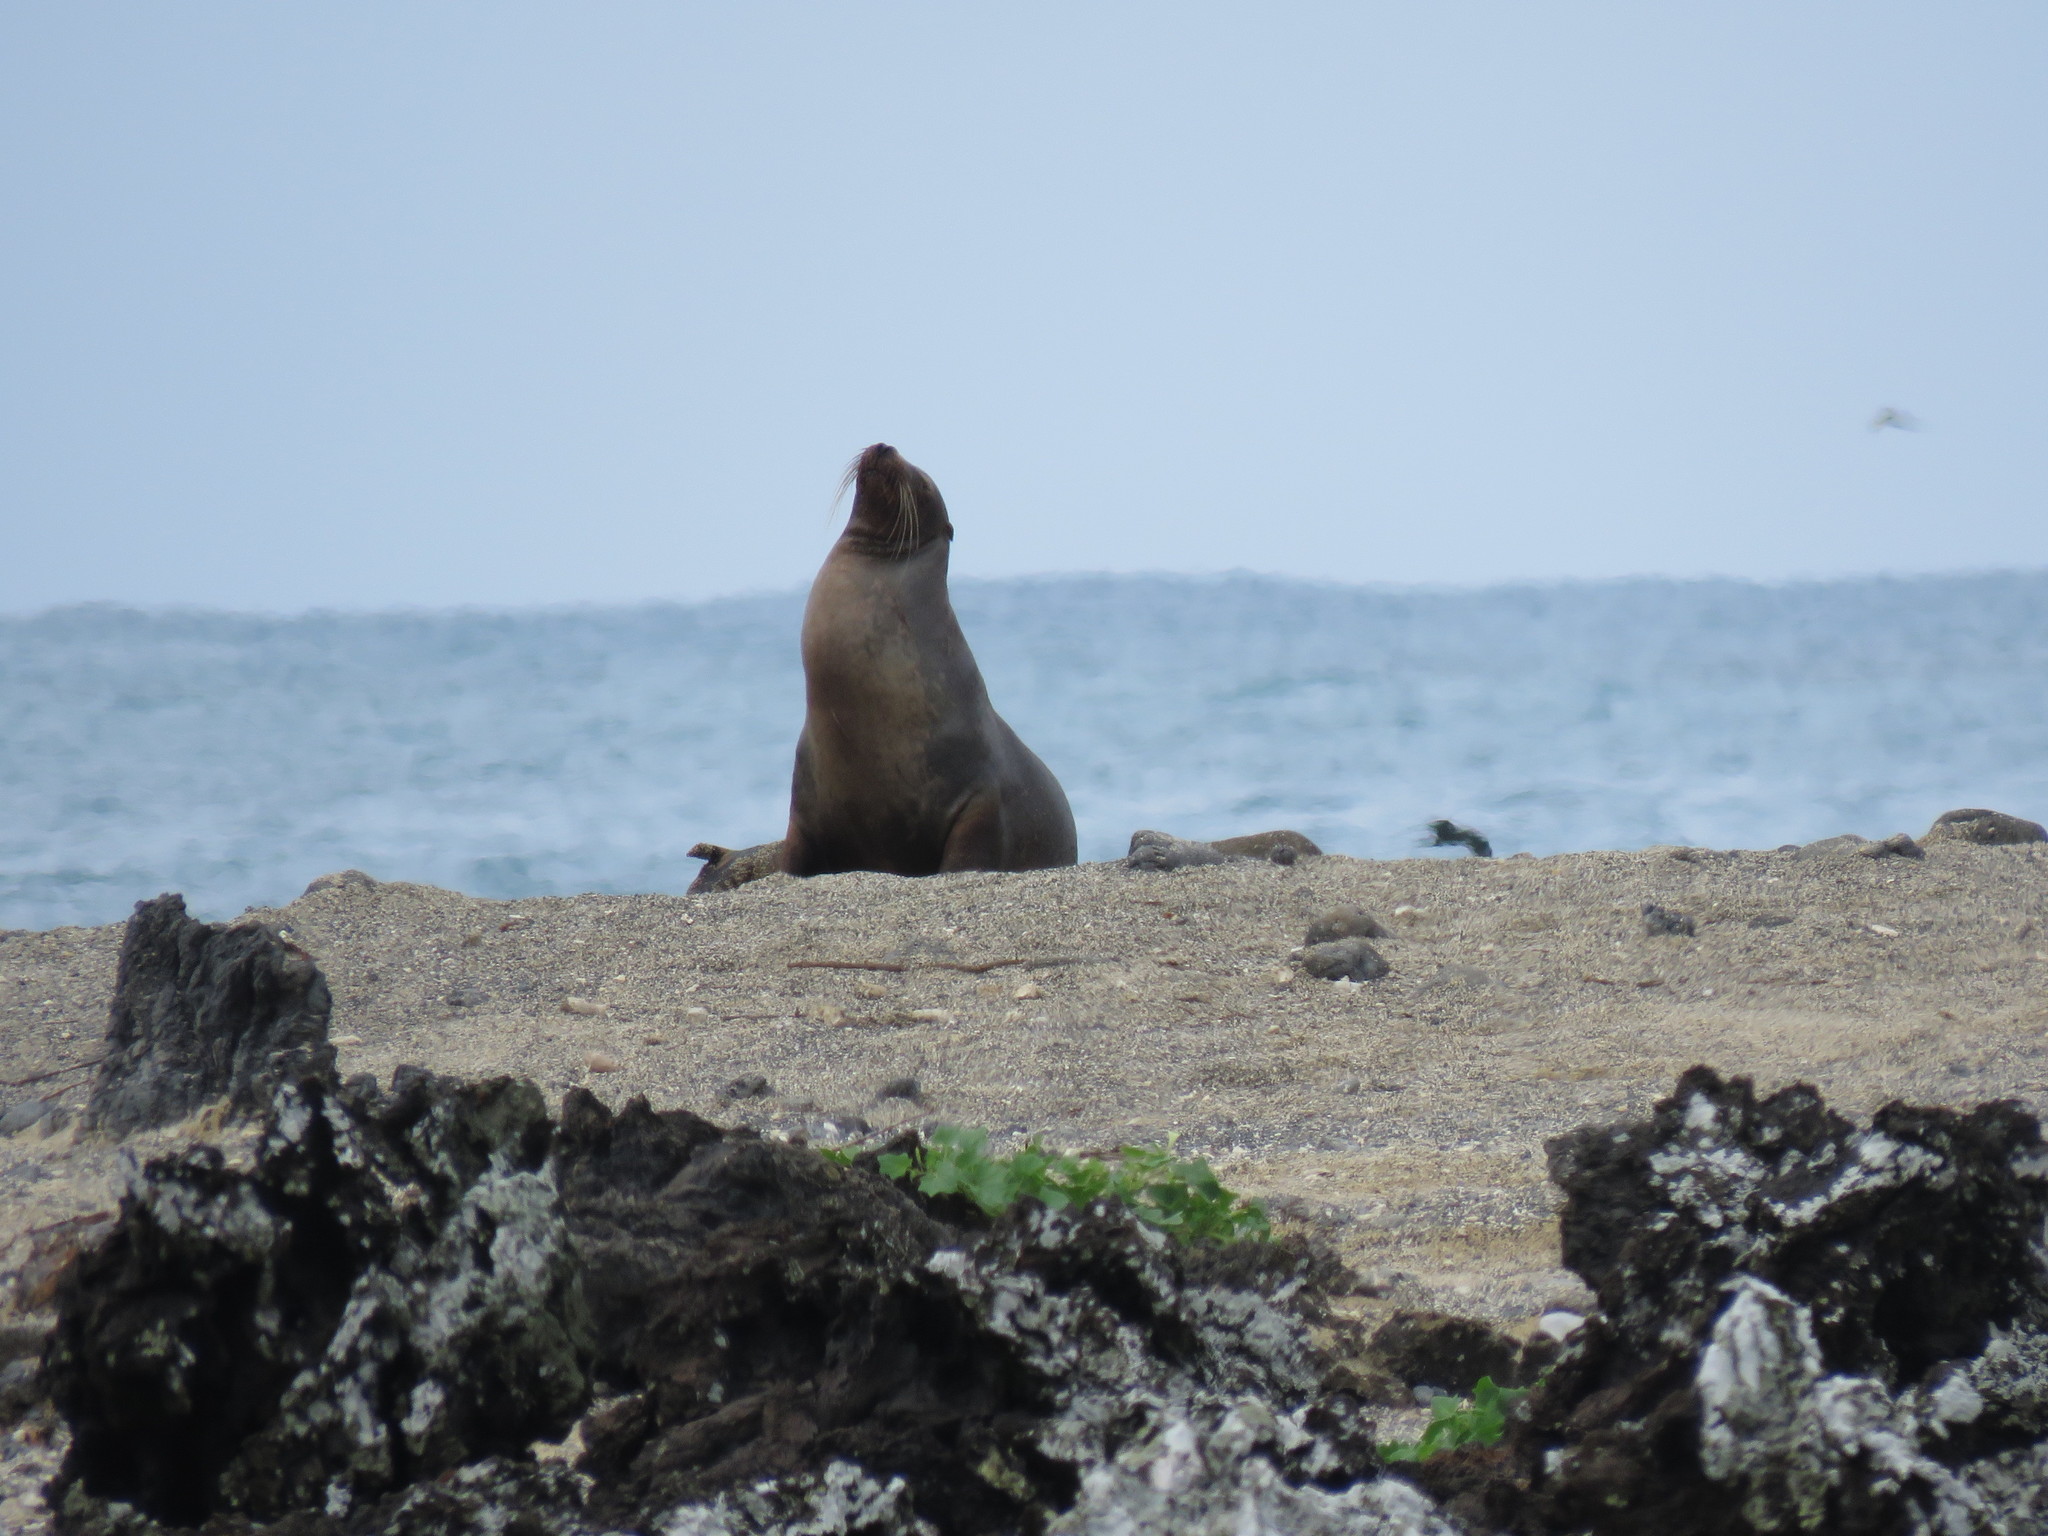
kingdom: Animalia
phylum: Chordata
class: Mammalia
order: Carnivora
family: Otariidae
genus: Zalophus
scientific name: Zalophus wollebaeki
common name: Galapagos sea lion
